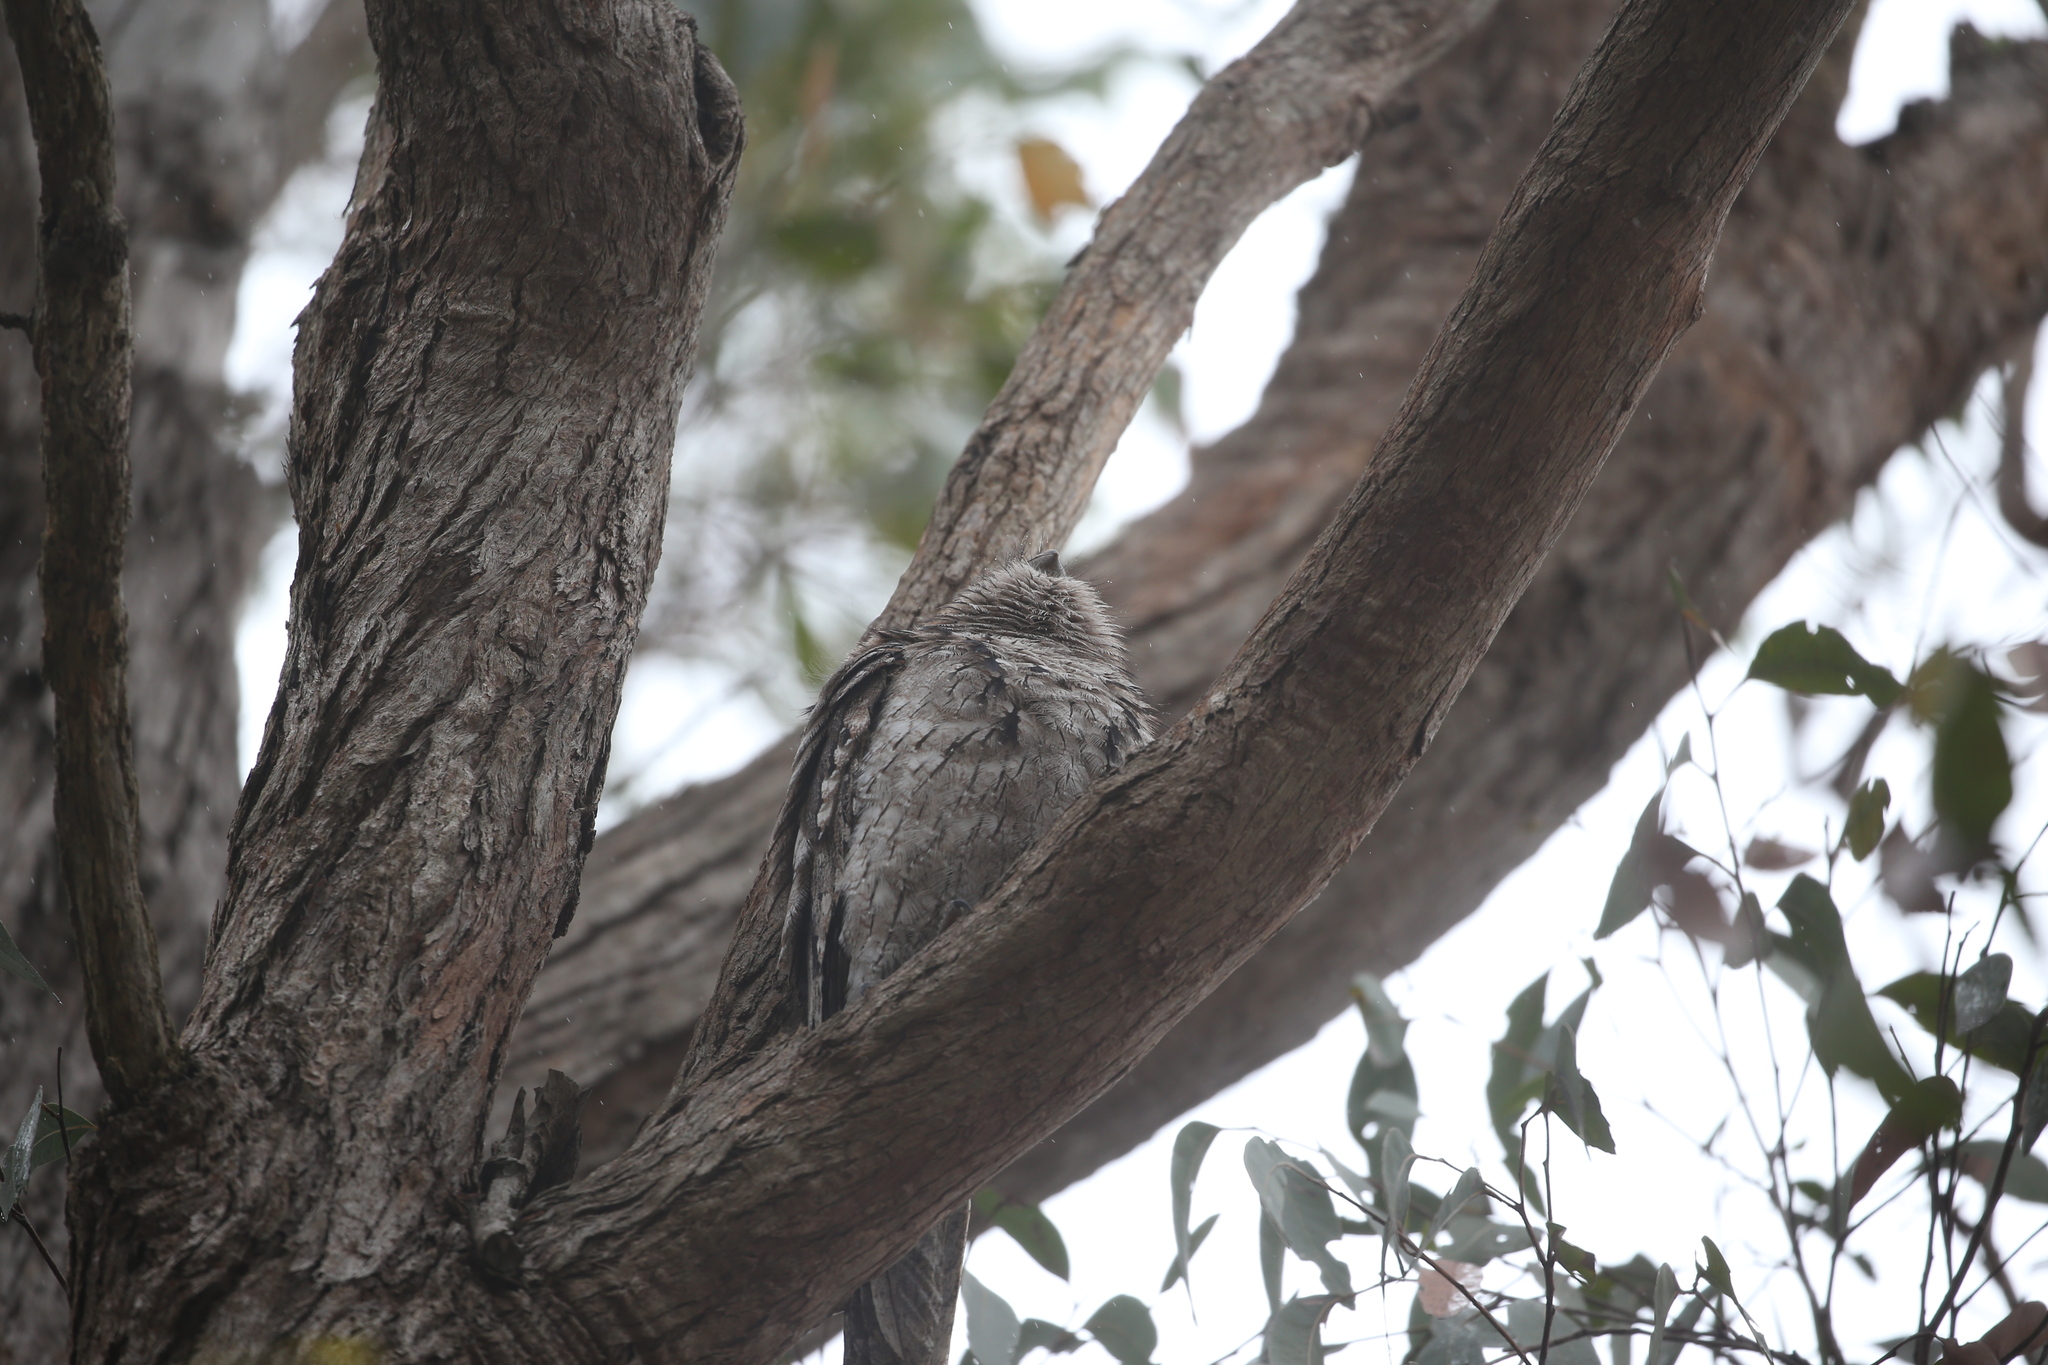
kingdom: Animalia
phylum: Chordata
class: Aves
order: Caprimulgiformes
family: Podargidae
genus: Podargus
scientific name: Podargus strigoides
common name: Tawny frogmouth
